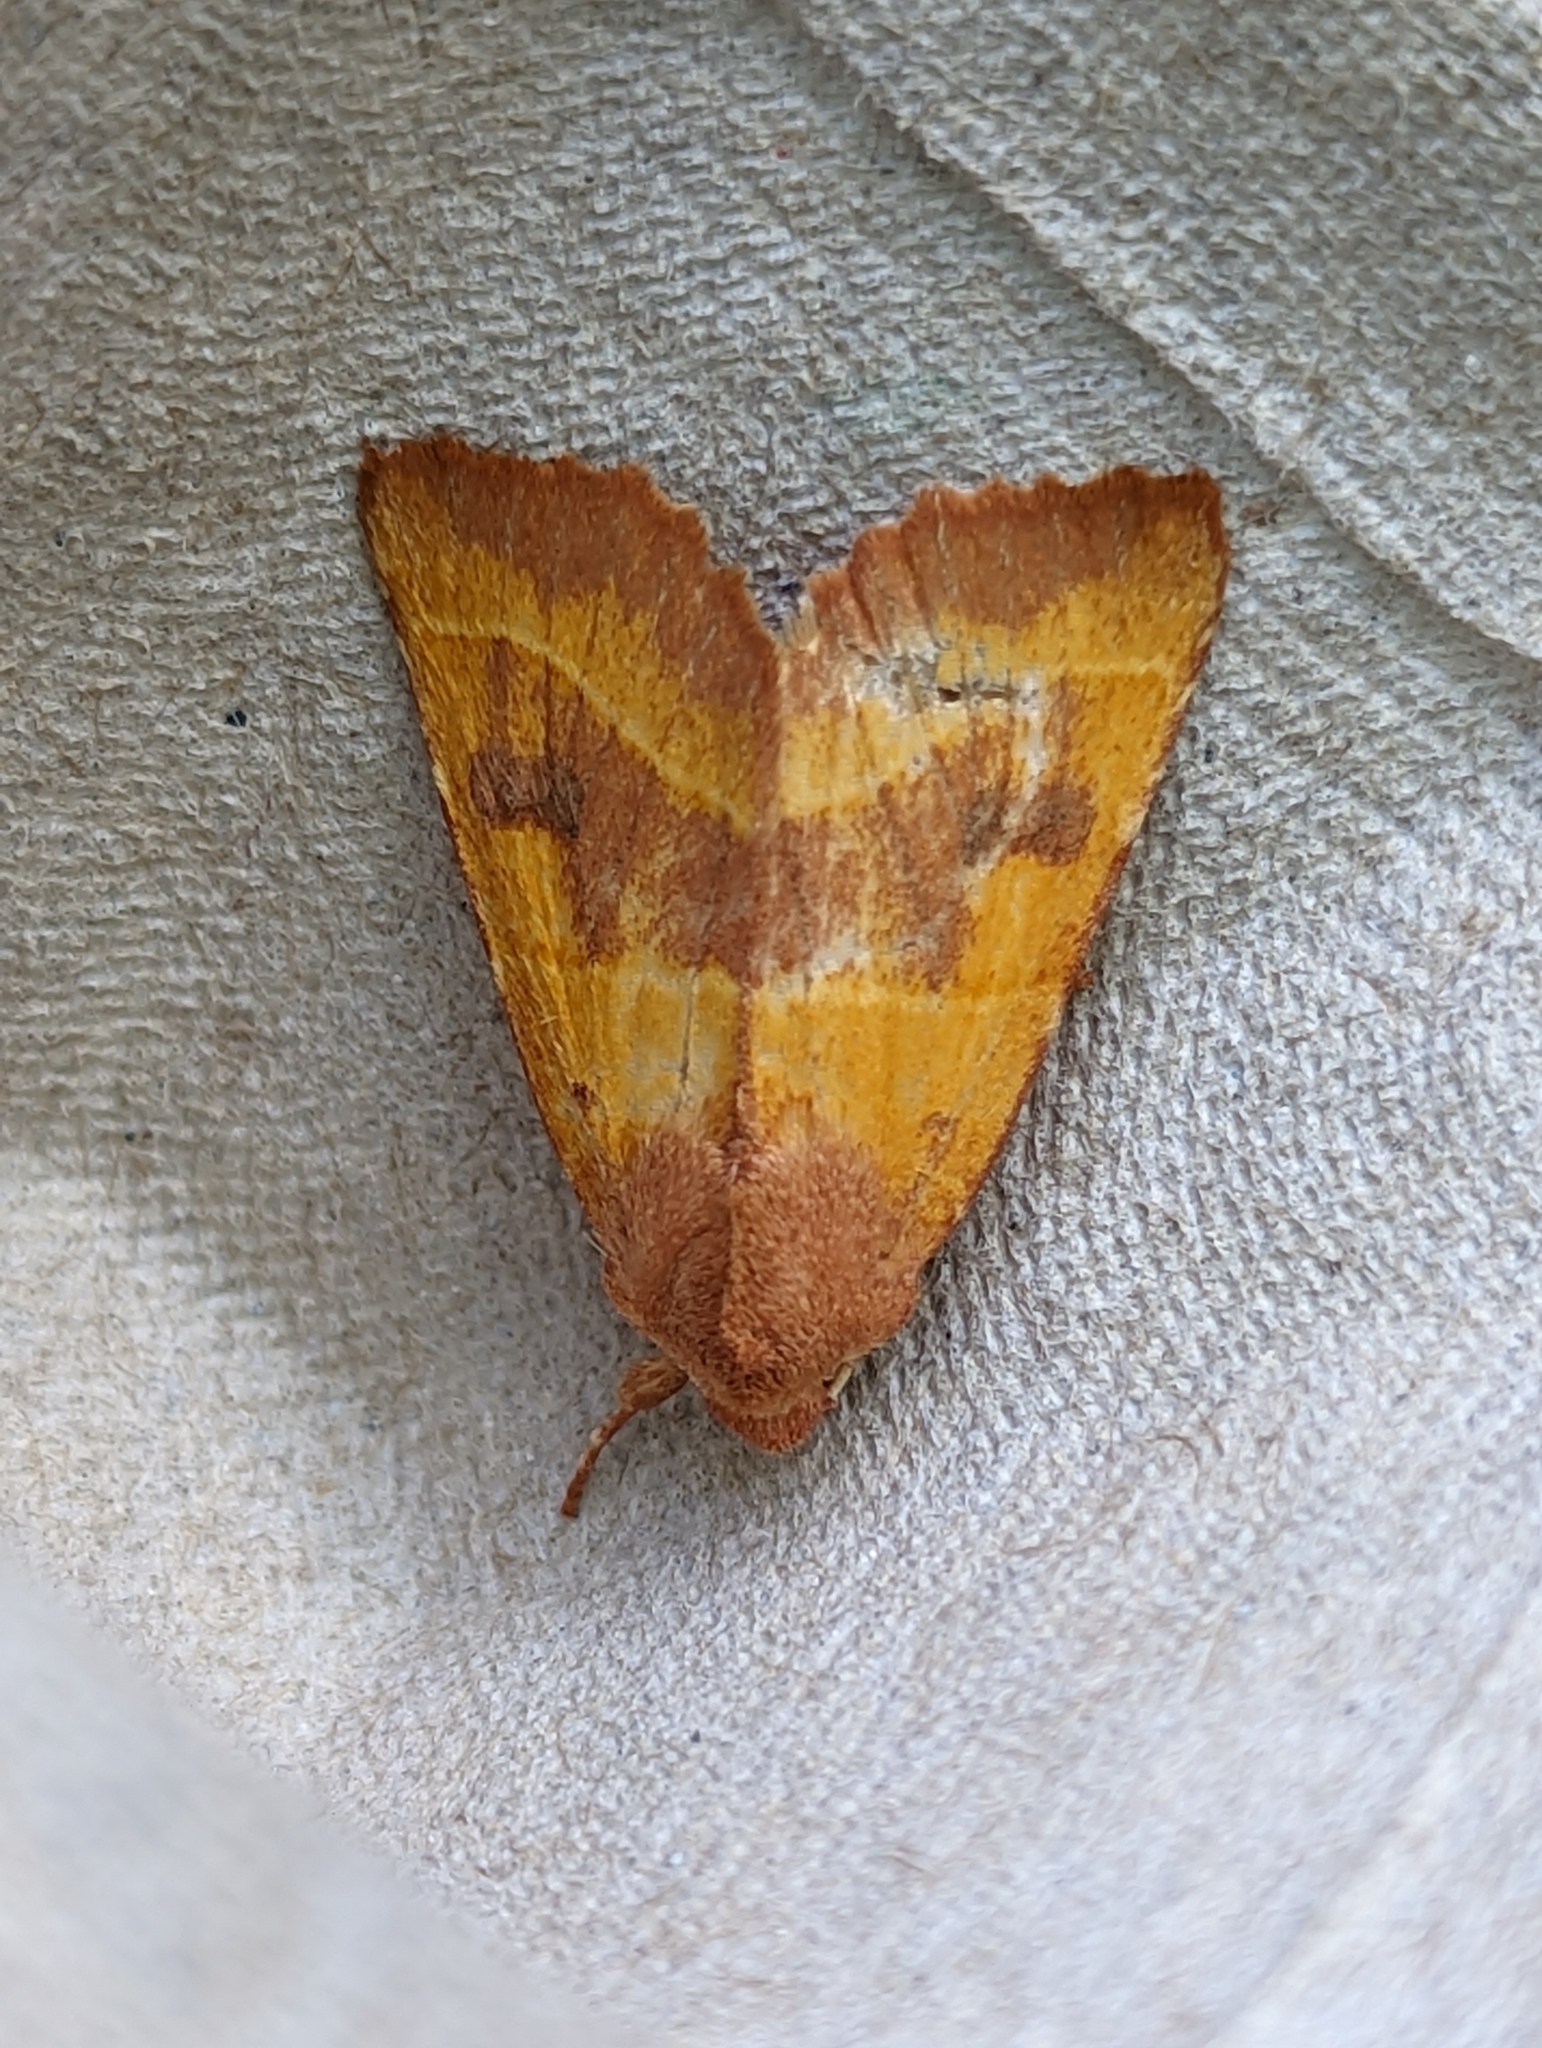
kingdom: Animalia
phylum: Arthropoda
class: Insecta
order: Lepidoptera
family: Noctuidae
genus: Atethmia
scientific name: Atethmia centrago
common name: Centre-barred sallow
